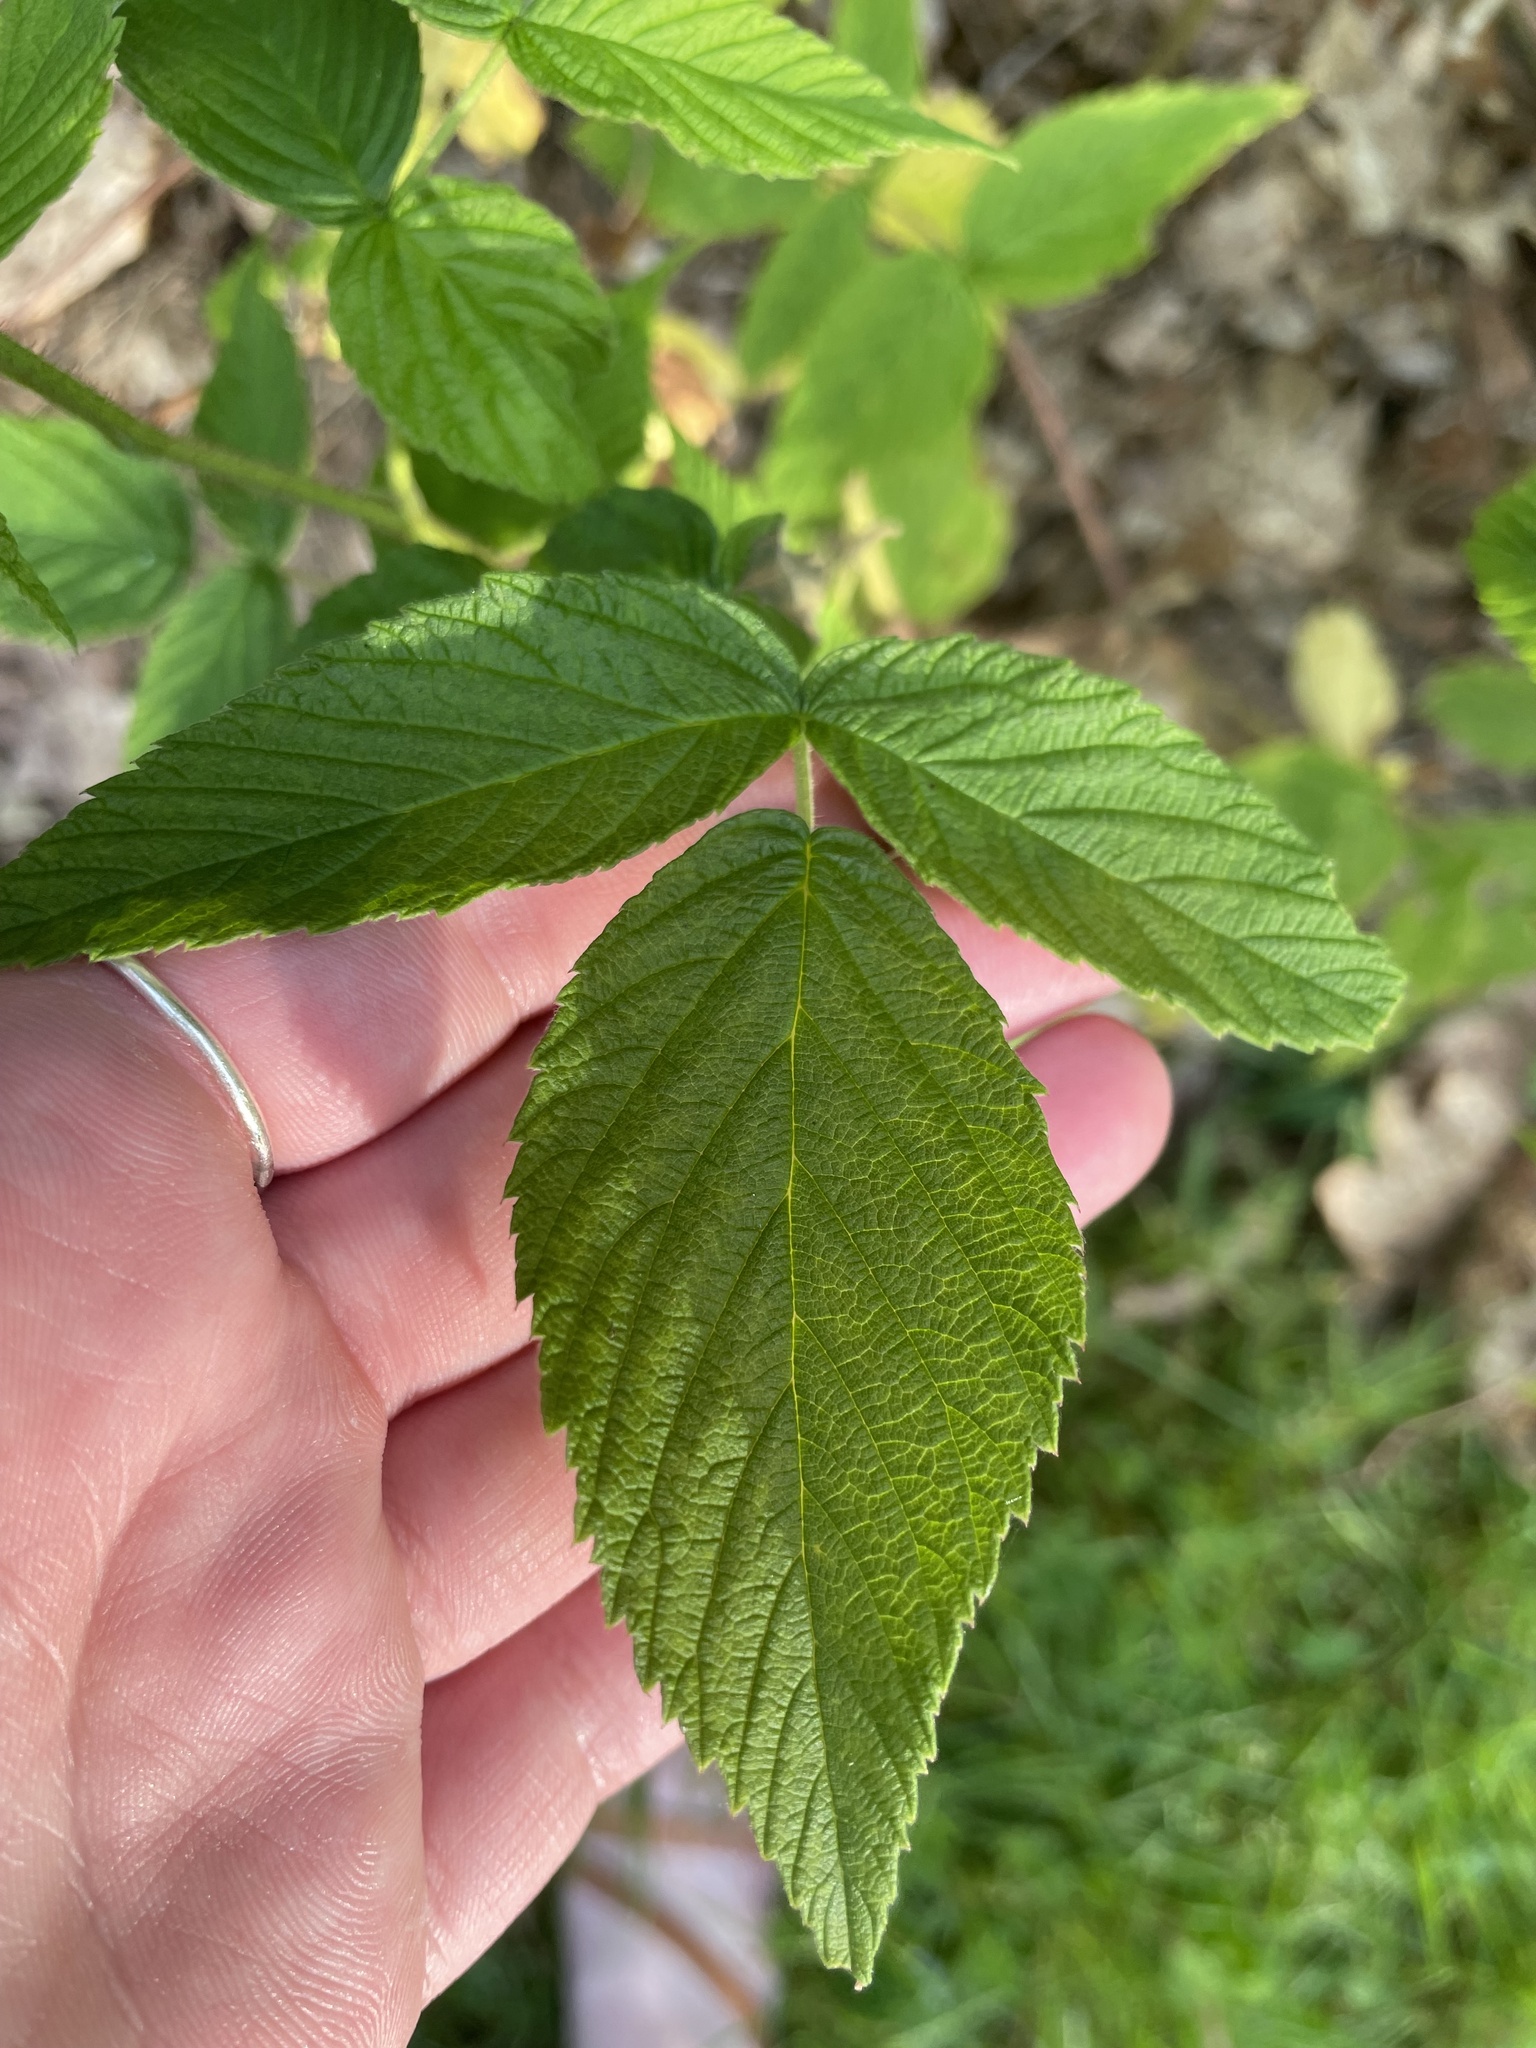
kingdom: Plantae
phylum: Tracheophyta
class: Magnoliopsida
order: Rosales
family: Rosaceae
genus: Rubus
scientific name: Rubus idaeus
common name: Raspberry
